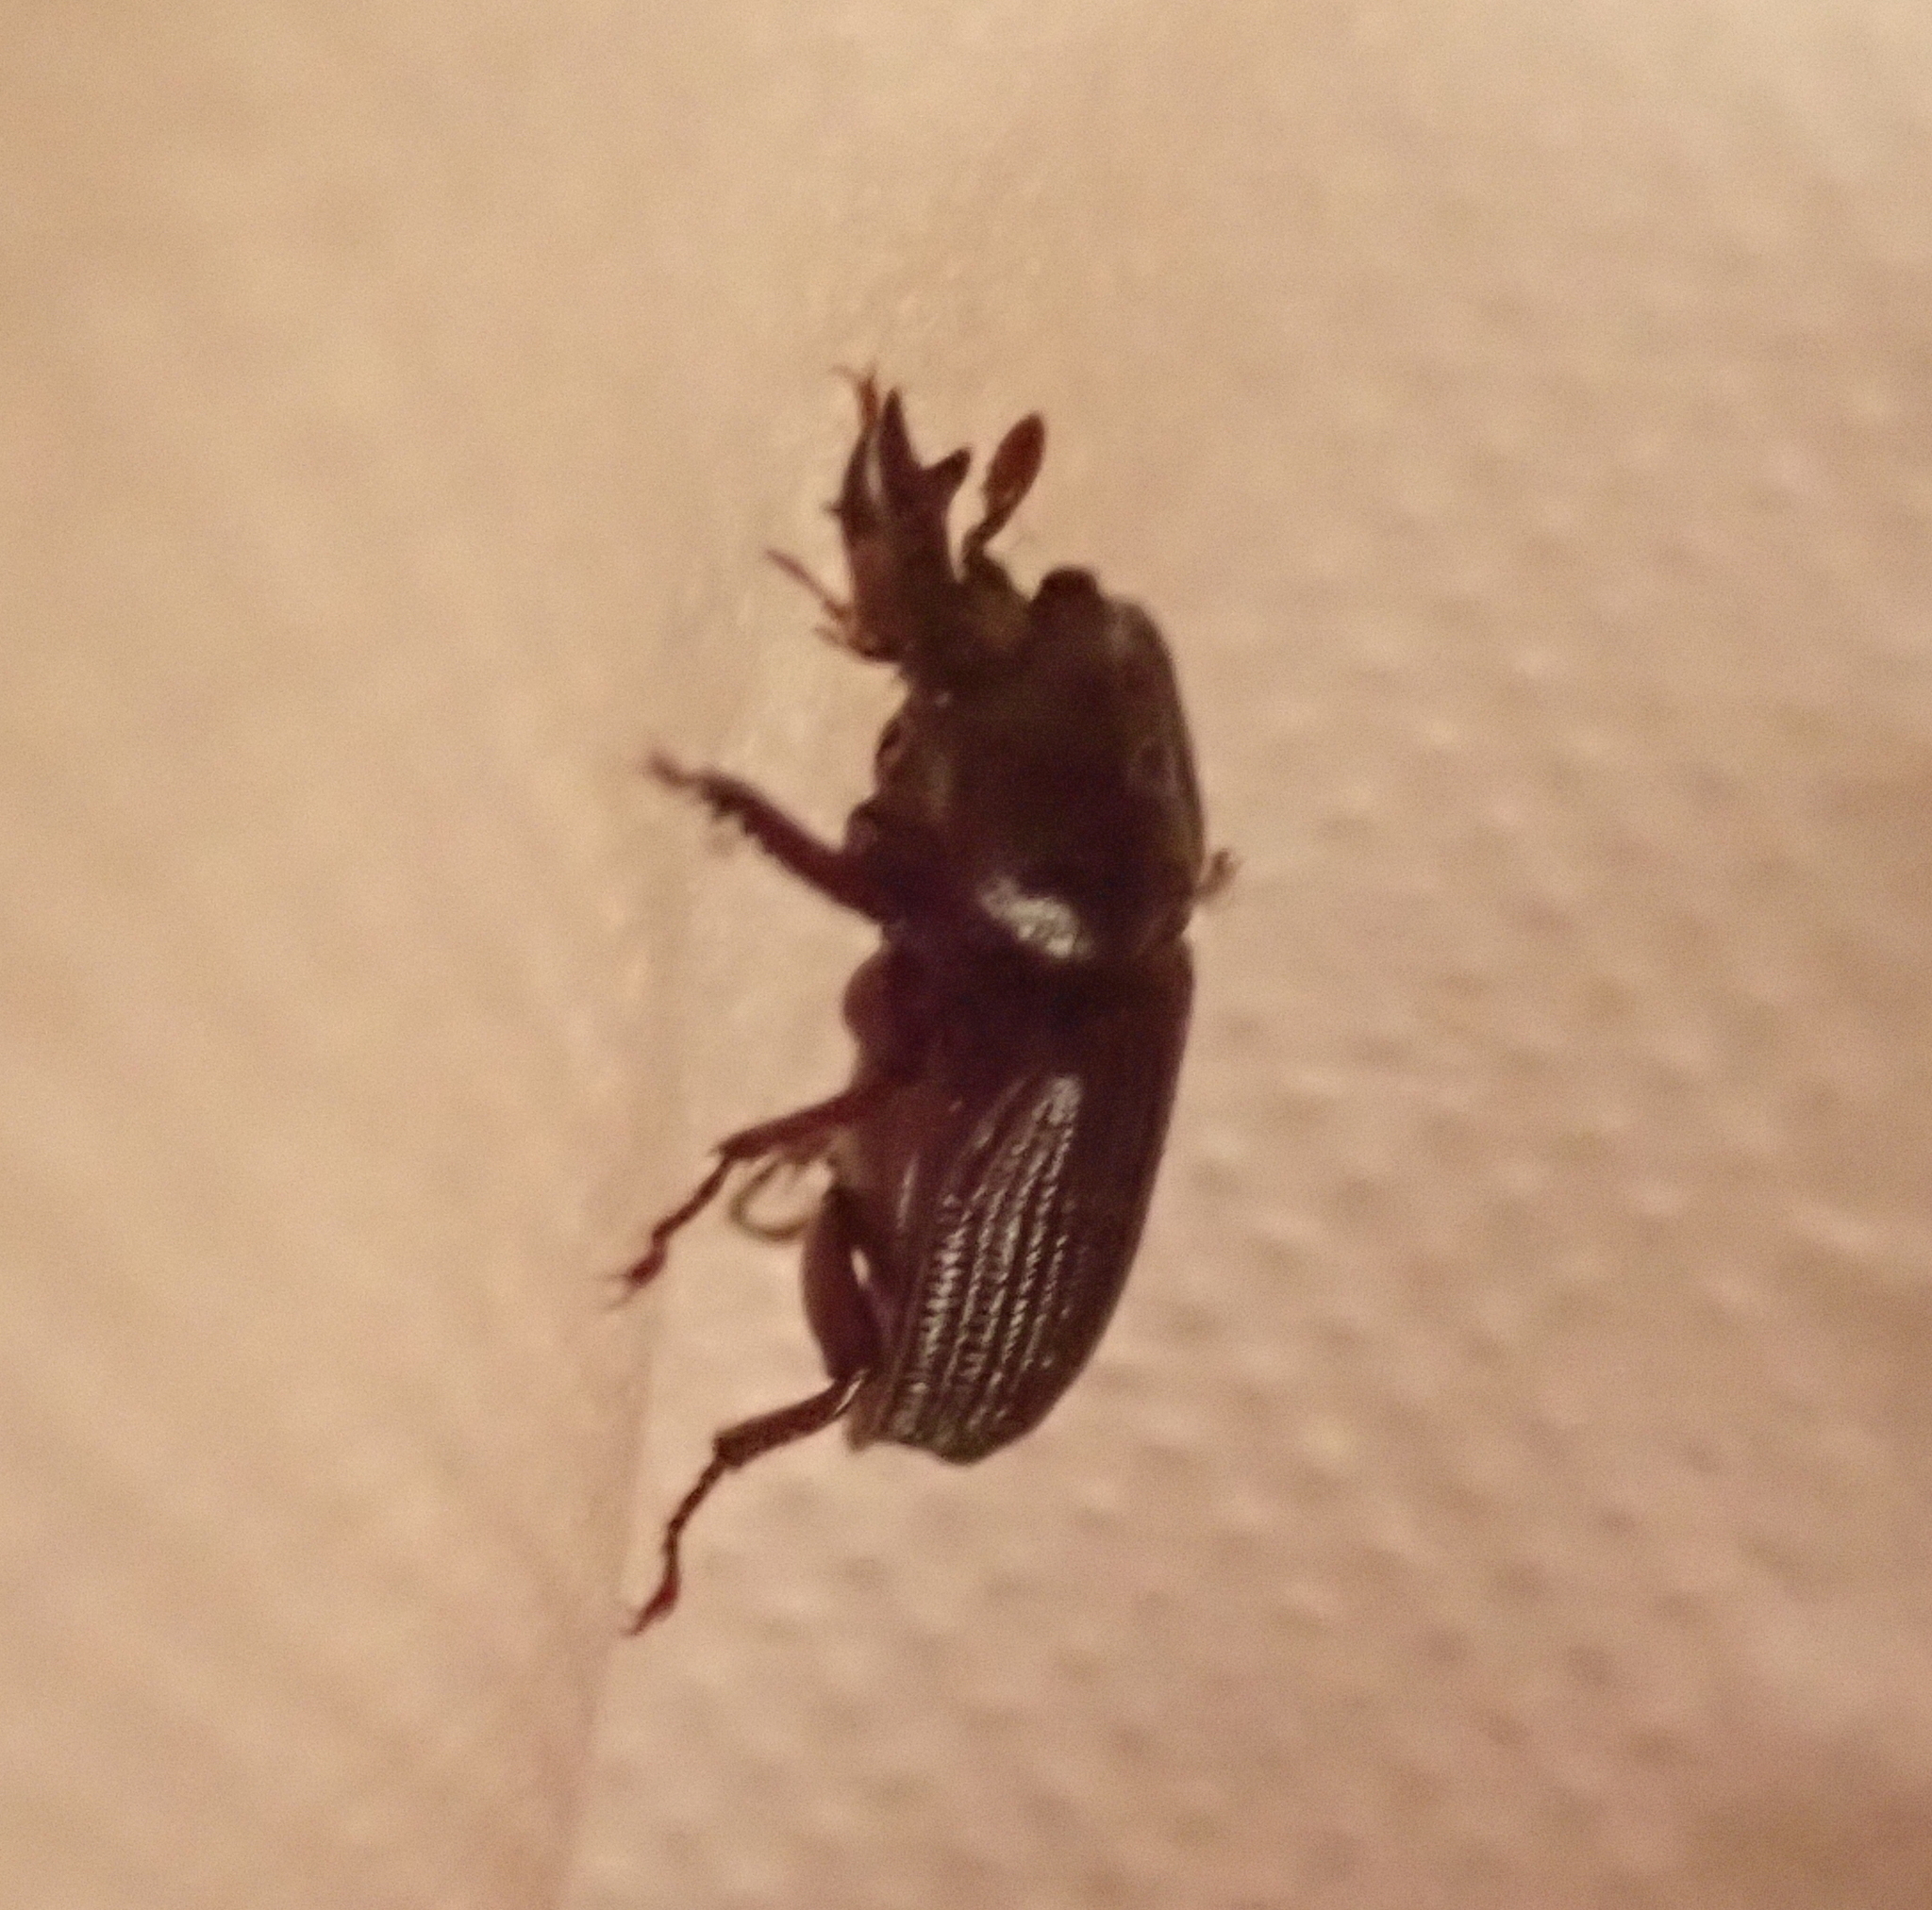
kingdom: Animalia
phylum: Arthropoda
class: Insecta
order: Coleoptera
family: Lucanidae
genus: Syndesus
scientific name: Syndesus cornutus
